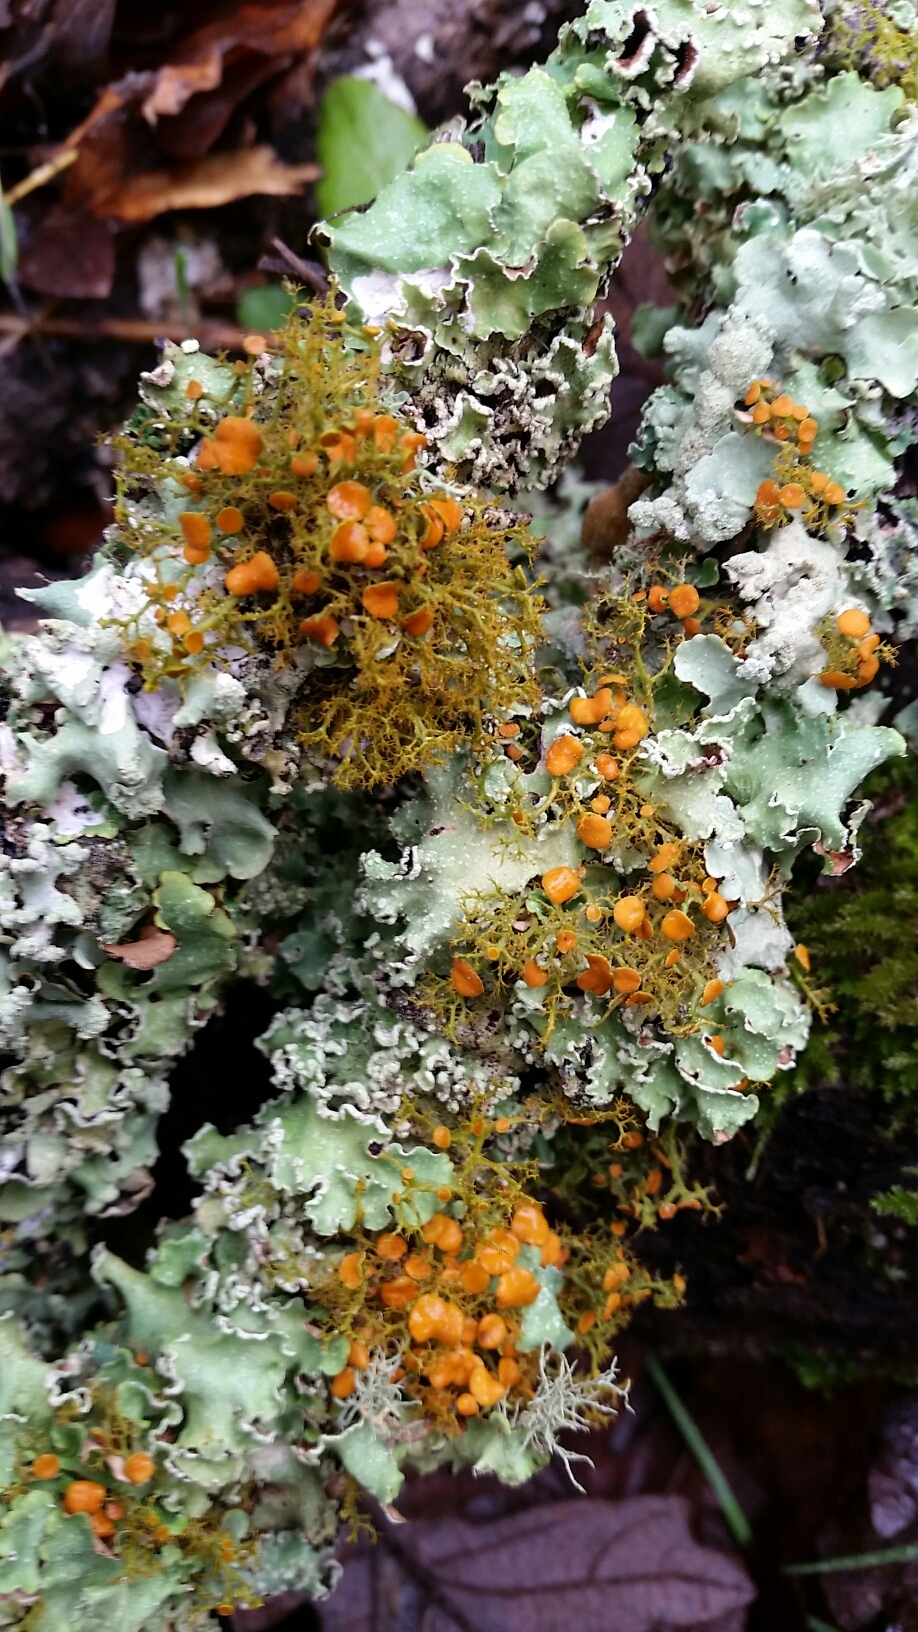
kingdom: Fungi
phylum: Ascomycota
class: Lecanoromycetes
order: Teloschistales
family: Teloschistaceae
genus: Teloschistes
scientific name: Teloschistes flavicans
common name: Golden hair-lichen
